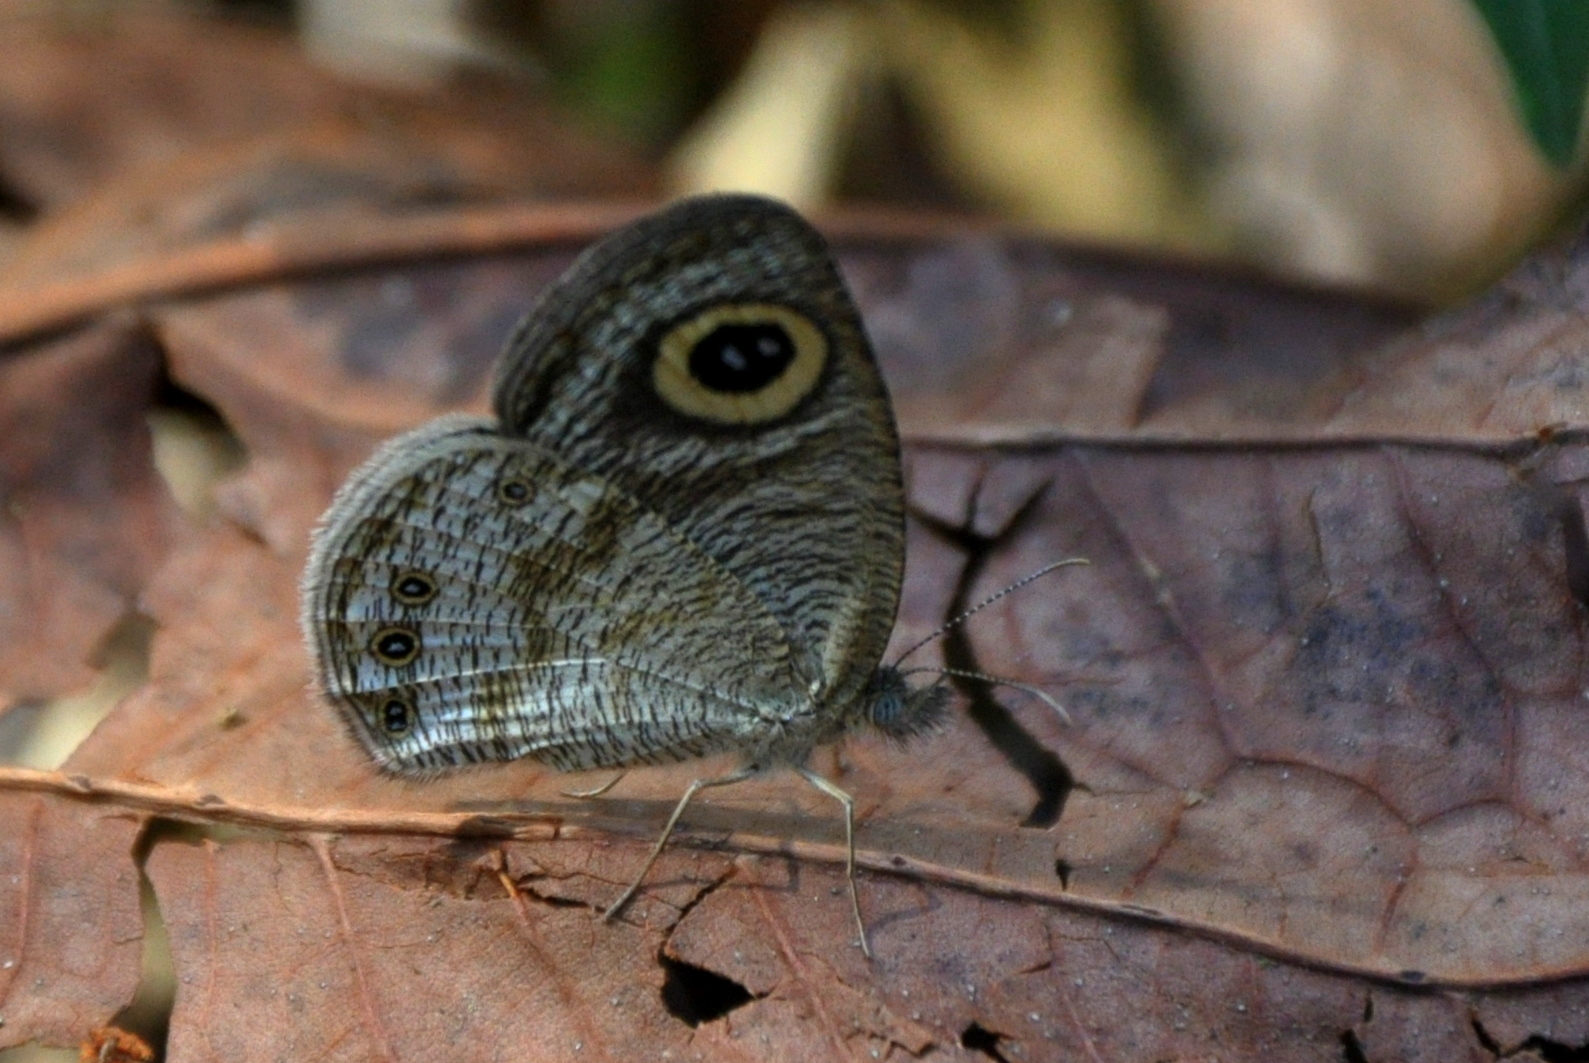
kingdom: Animalia
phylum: Arthropoda
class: Insecta
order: Lepidoptera
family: Nymphalidae
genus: Ypthima
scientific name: Ypthima huebneri
